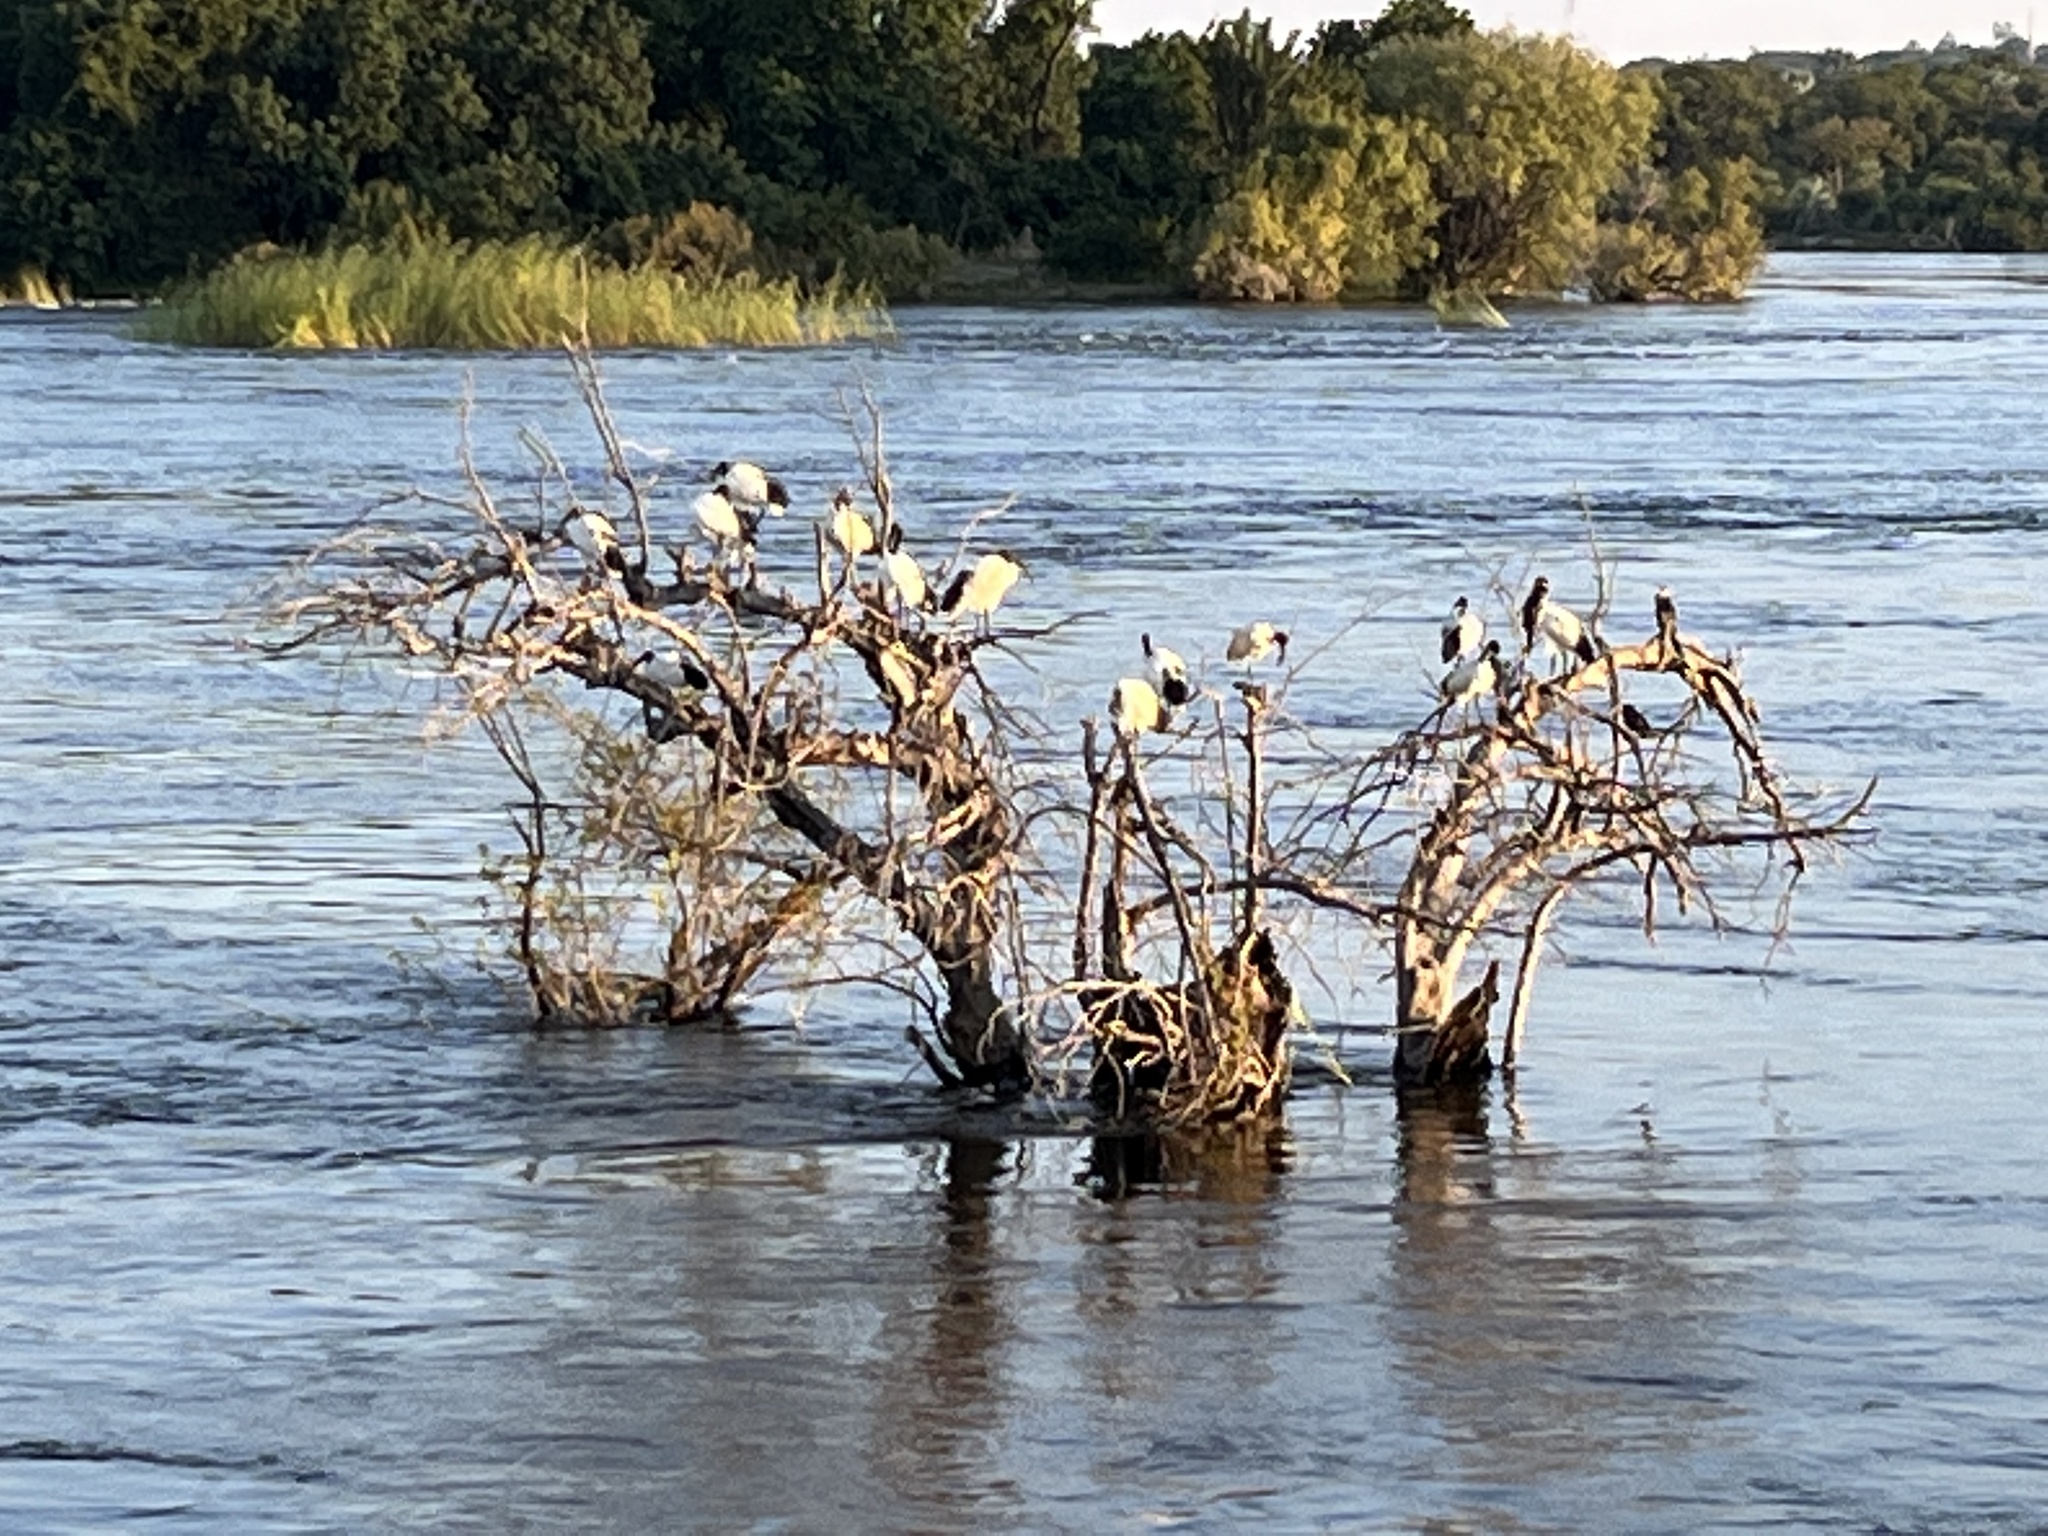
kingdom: Animalia
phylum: Chordata
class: Aves
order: Pelecaniformes
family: Threskiornithidae
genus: Threskiornis
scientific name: Threskiornis aethiopicus
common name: Sacred ibis
